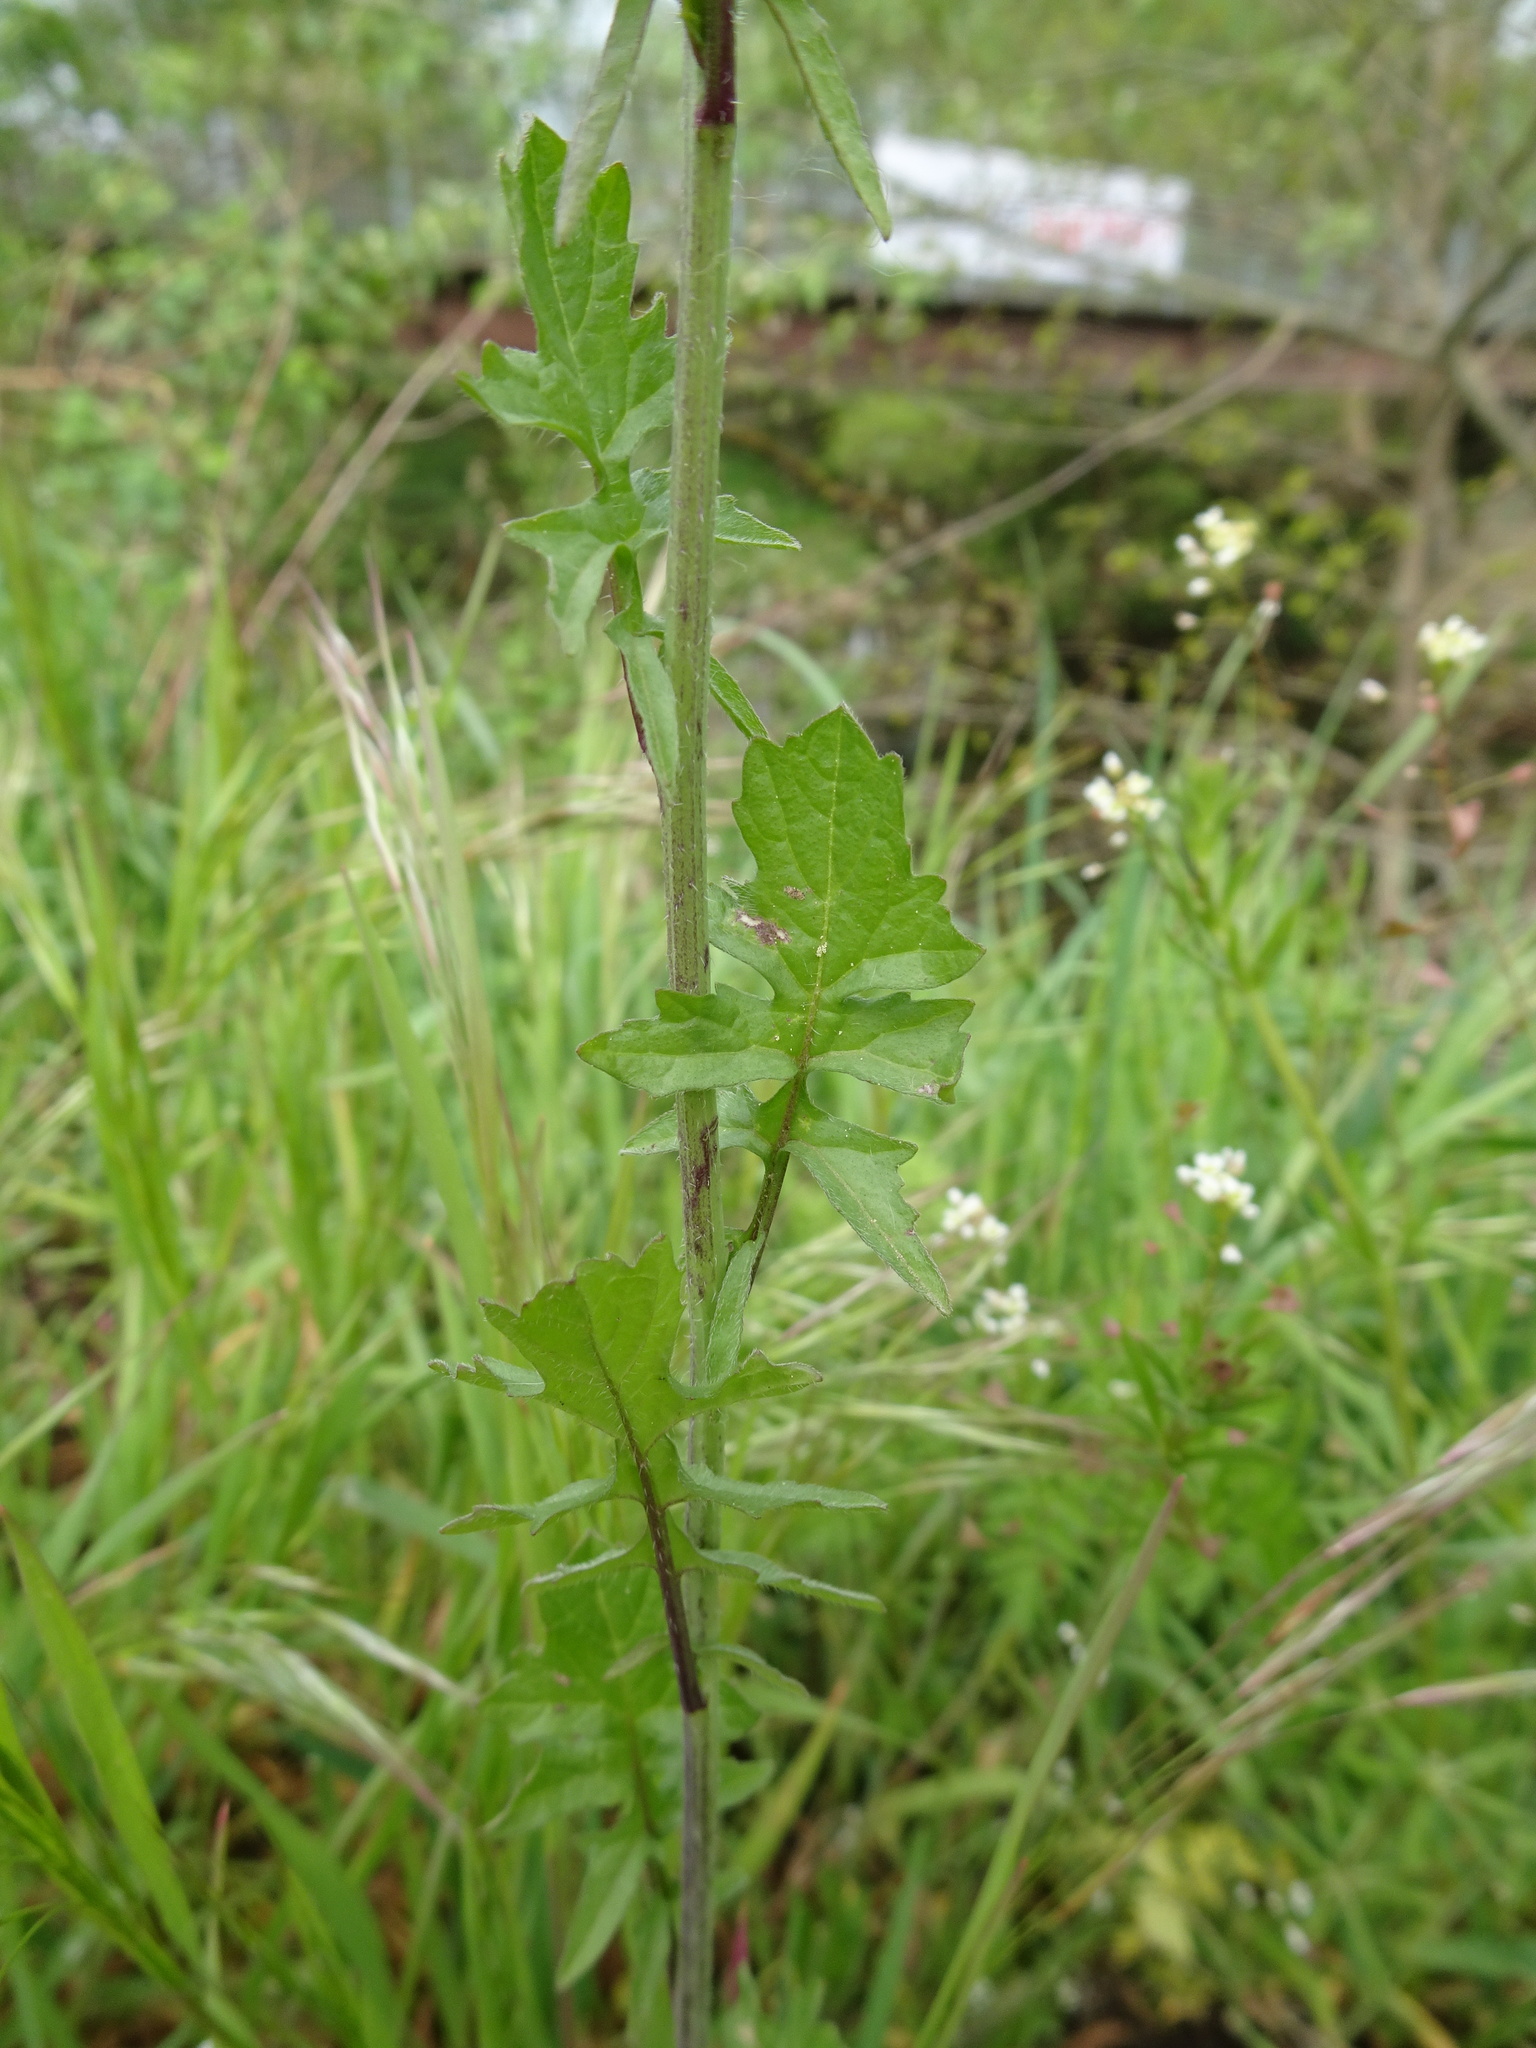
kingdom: Plantae
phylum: Tracheophyta
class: Magnoliopsida
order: Brassicales
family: Brassicaceae
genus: Sisymbrium
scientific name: Sisymbrium officinale
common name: Hedge mustard
